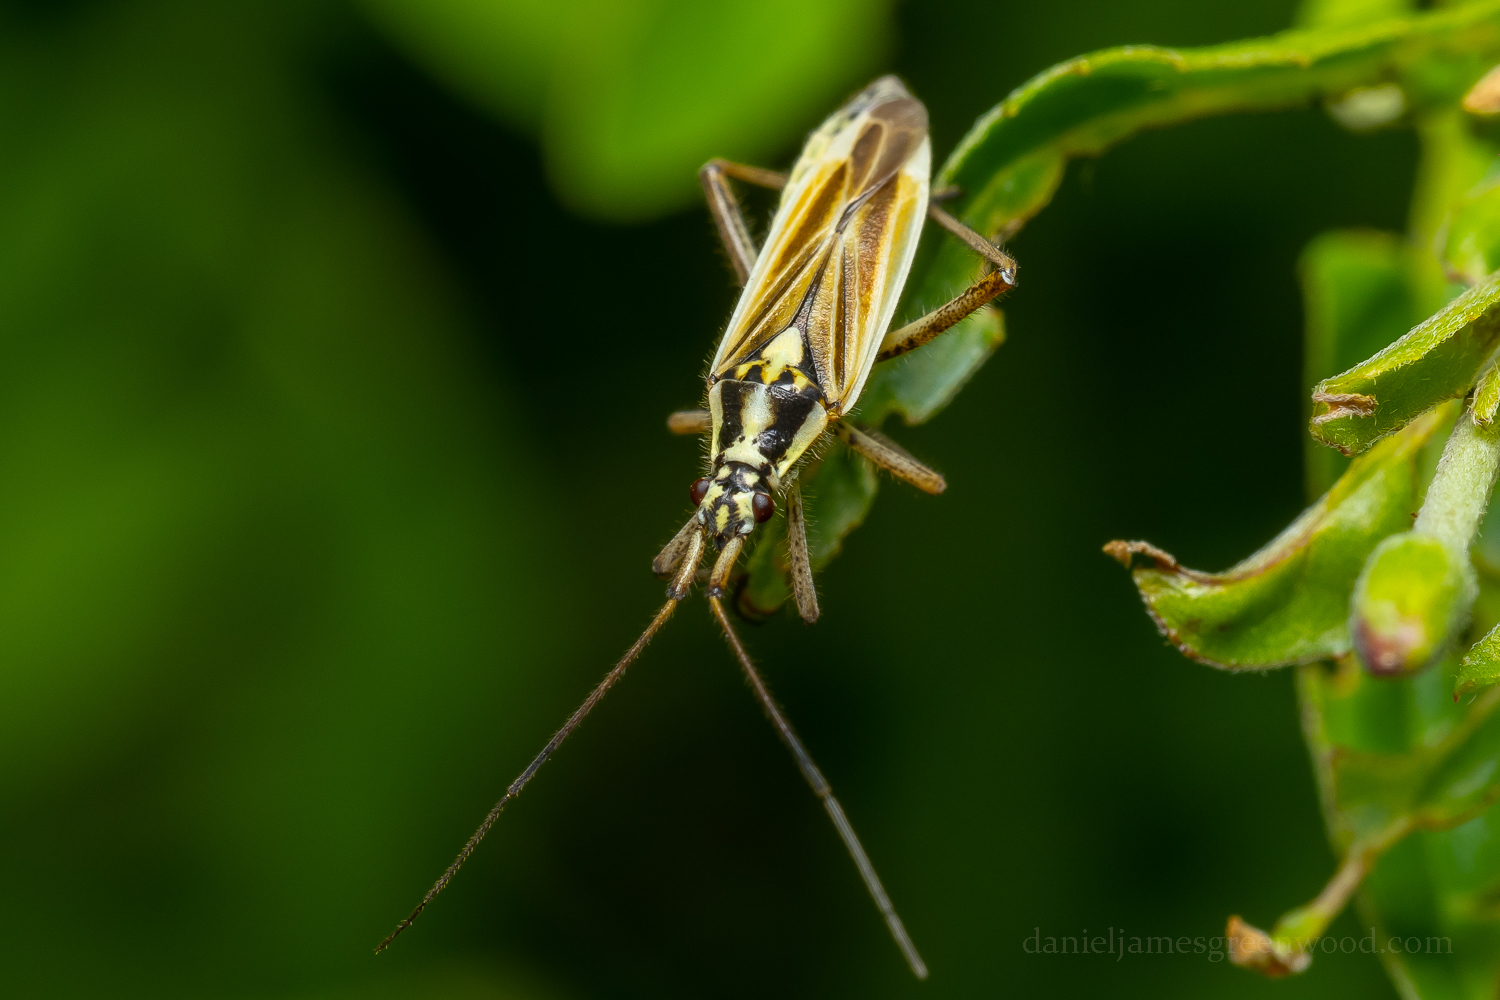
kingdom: Animalia
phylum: Arthropoda
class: Insecta
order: Hemiptera
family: Miridae
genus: Leptopterna
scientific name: Leptopterna dolabrata
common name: Meadow plant bug
